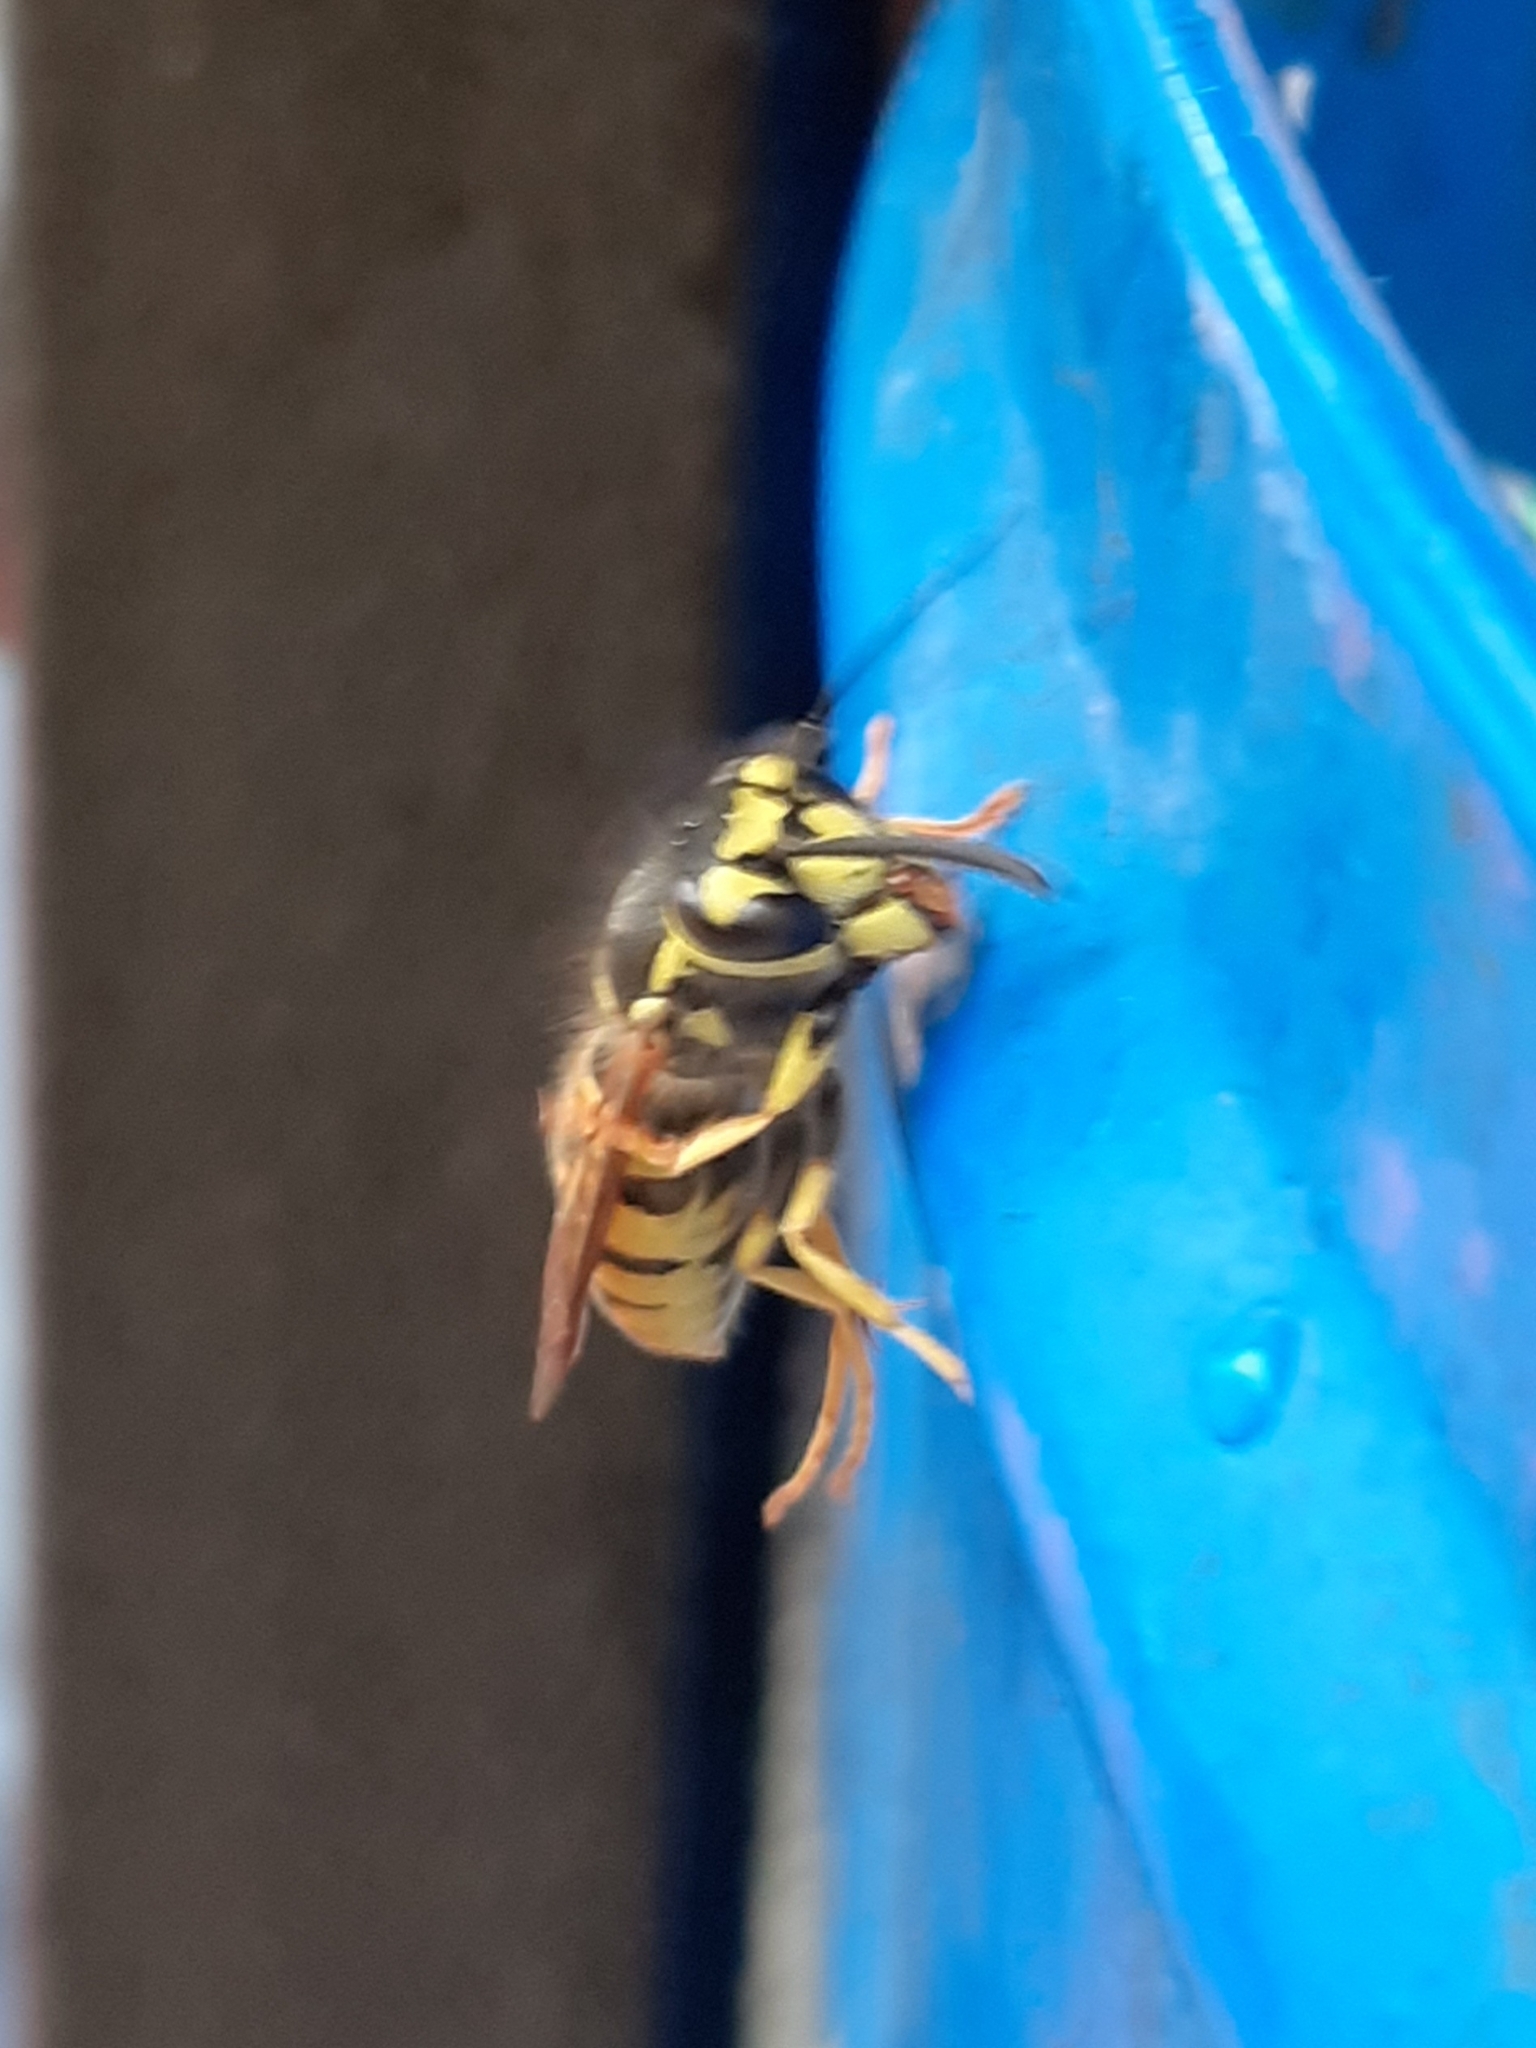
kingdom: Animalia
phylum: Arthropoda
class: Insecta
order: Hymenoptera
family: Vespidae
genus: Vespula
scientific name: Vespula germanica
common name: German wasp
